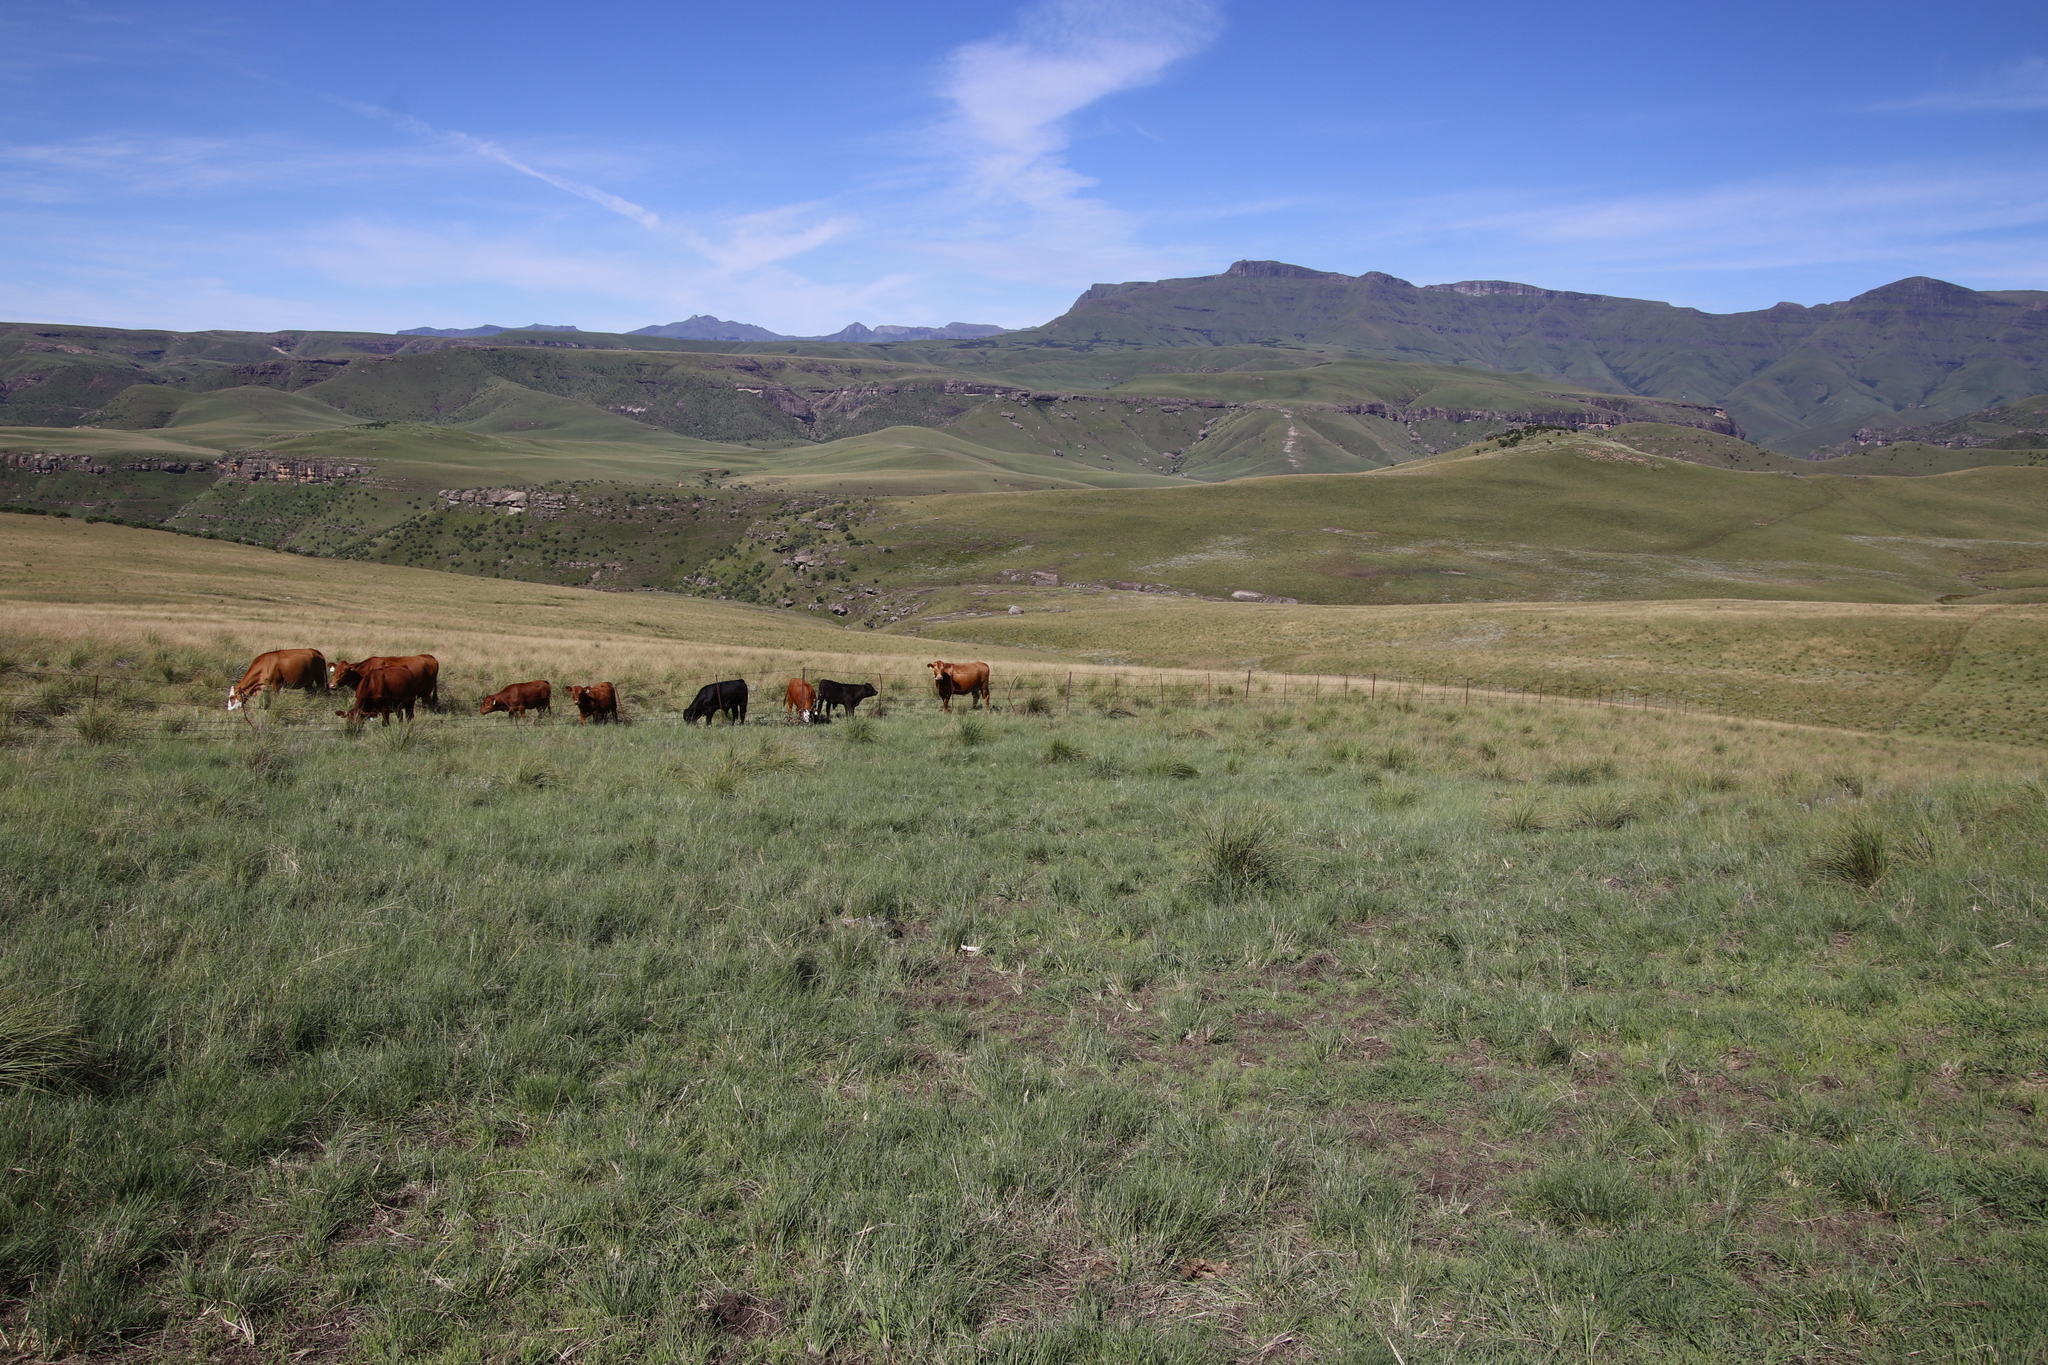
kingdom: Animalia
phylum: Chordata
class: Mammalia
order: Artiodactyla
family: Bovidae
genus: Bos
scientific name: Bos taurus
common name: Domesticated cattle
